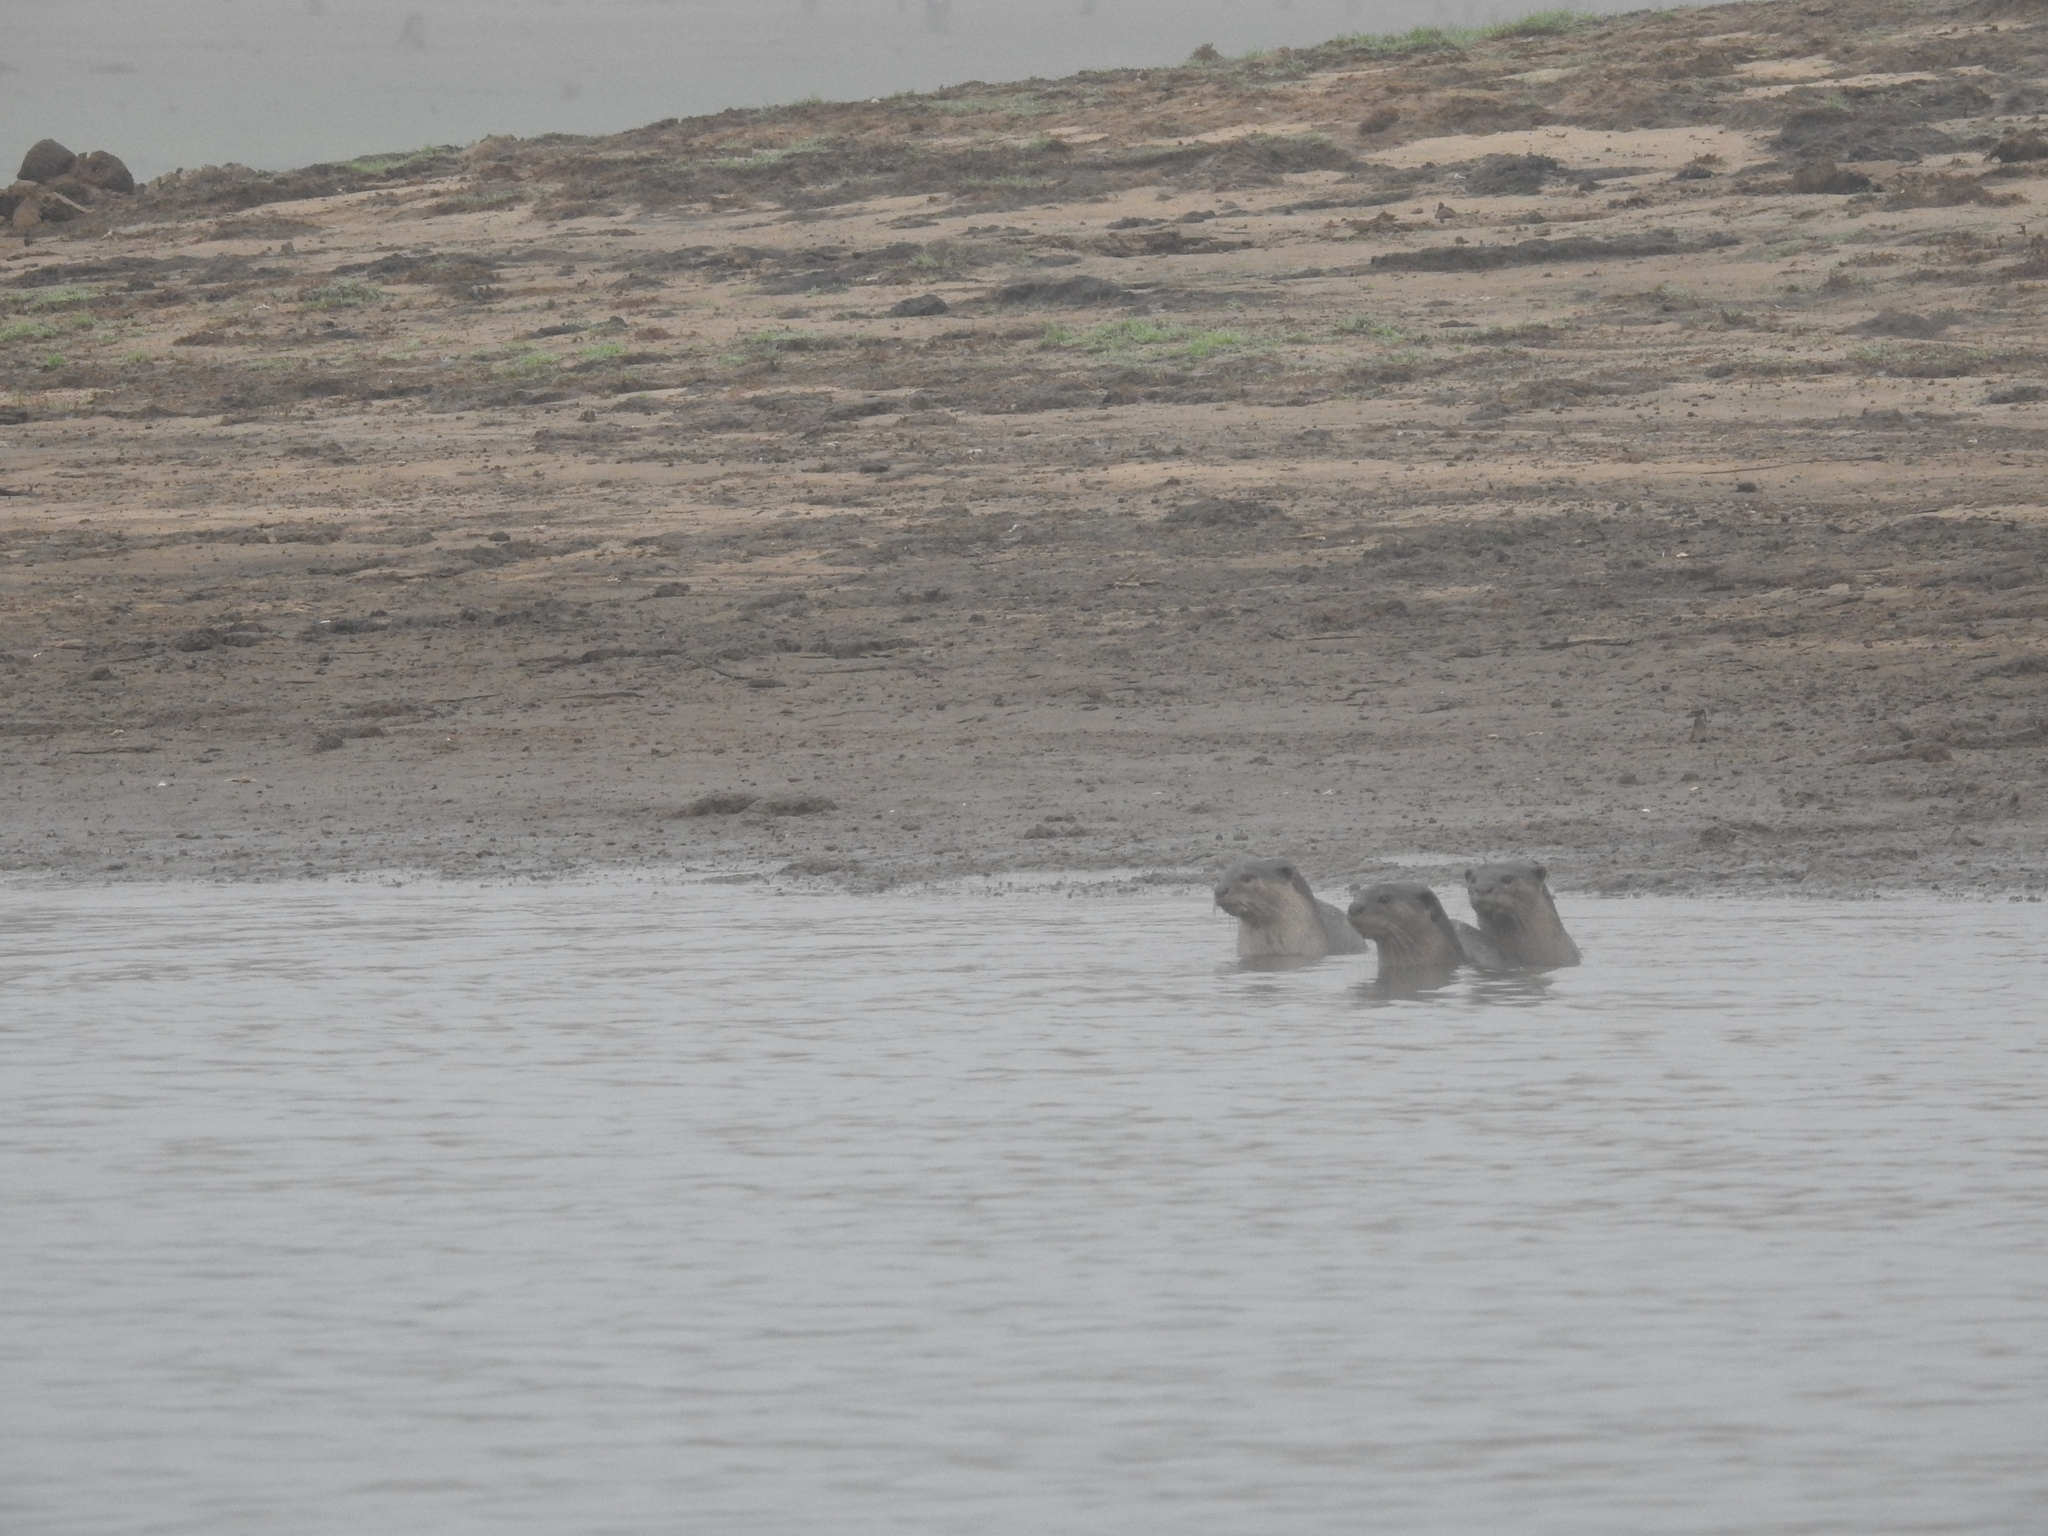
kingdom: Animalia
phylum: Chordata
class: Mammalia
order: Carnivora
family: Mustelidae
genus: Lutrogale
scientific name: Lutrogale perspicillata
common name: Smooth-coated otter
